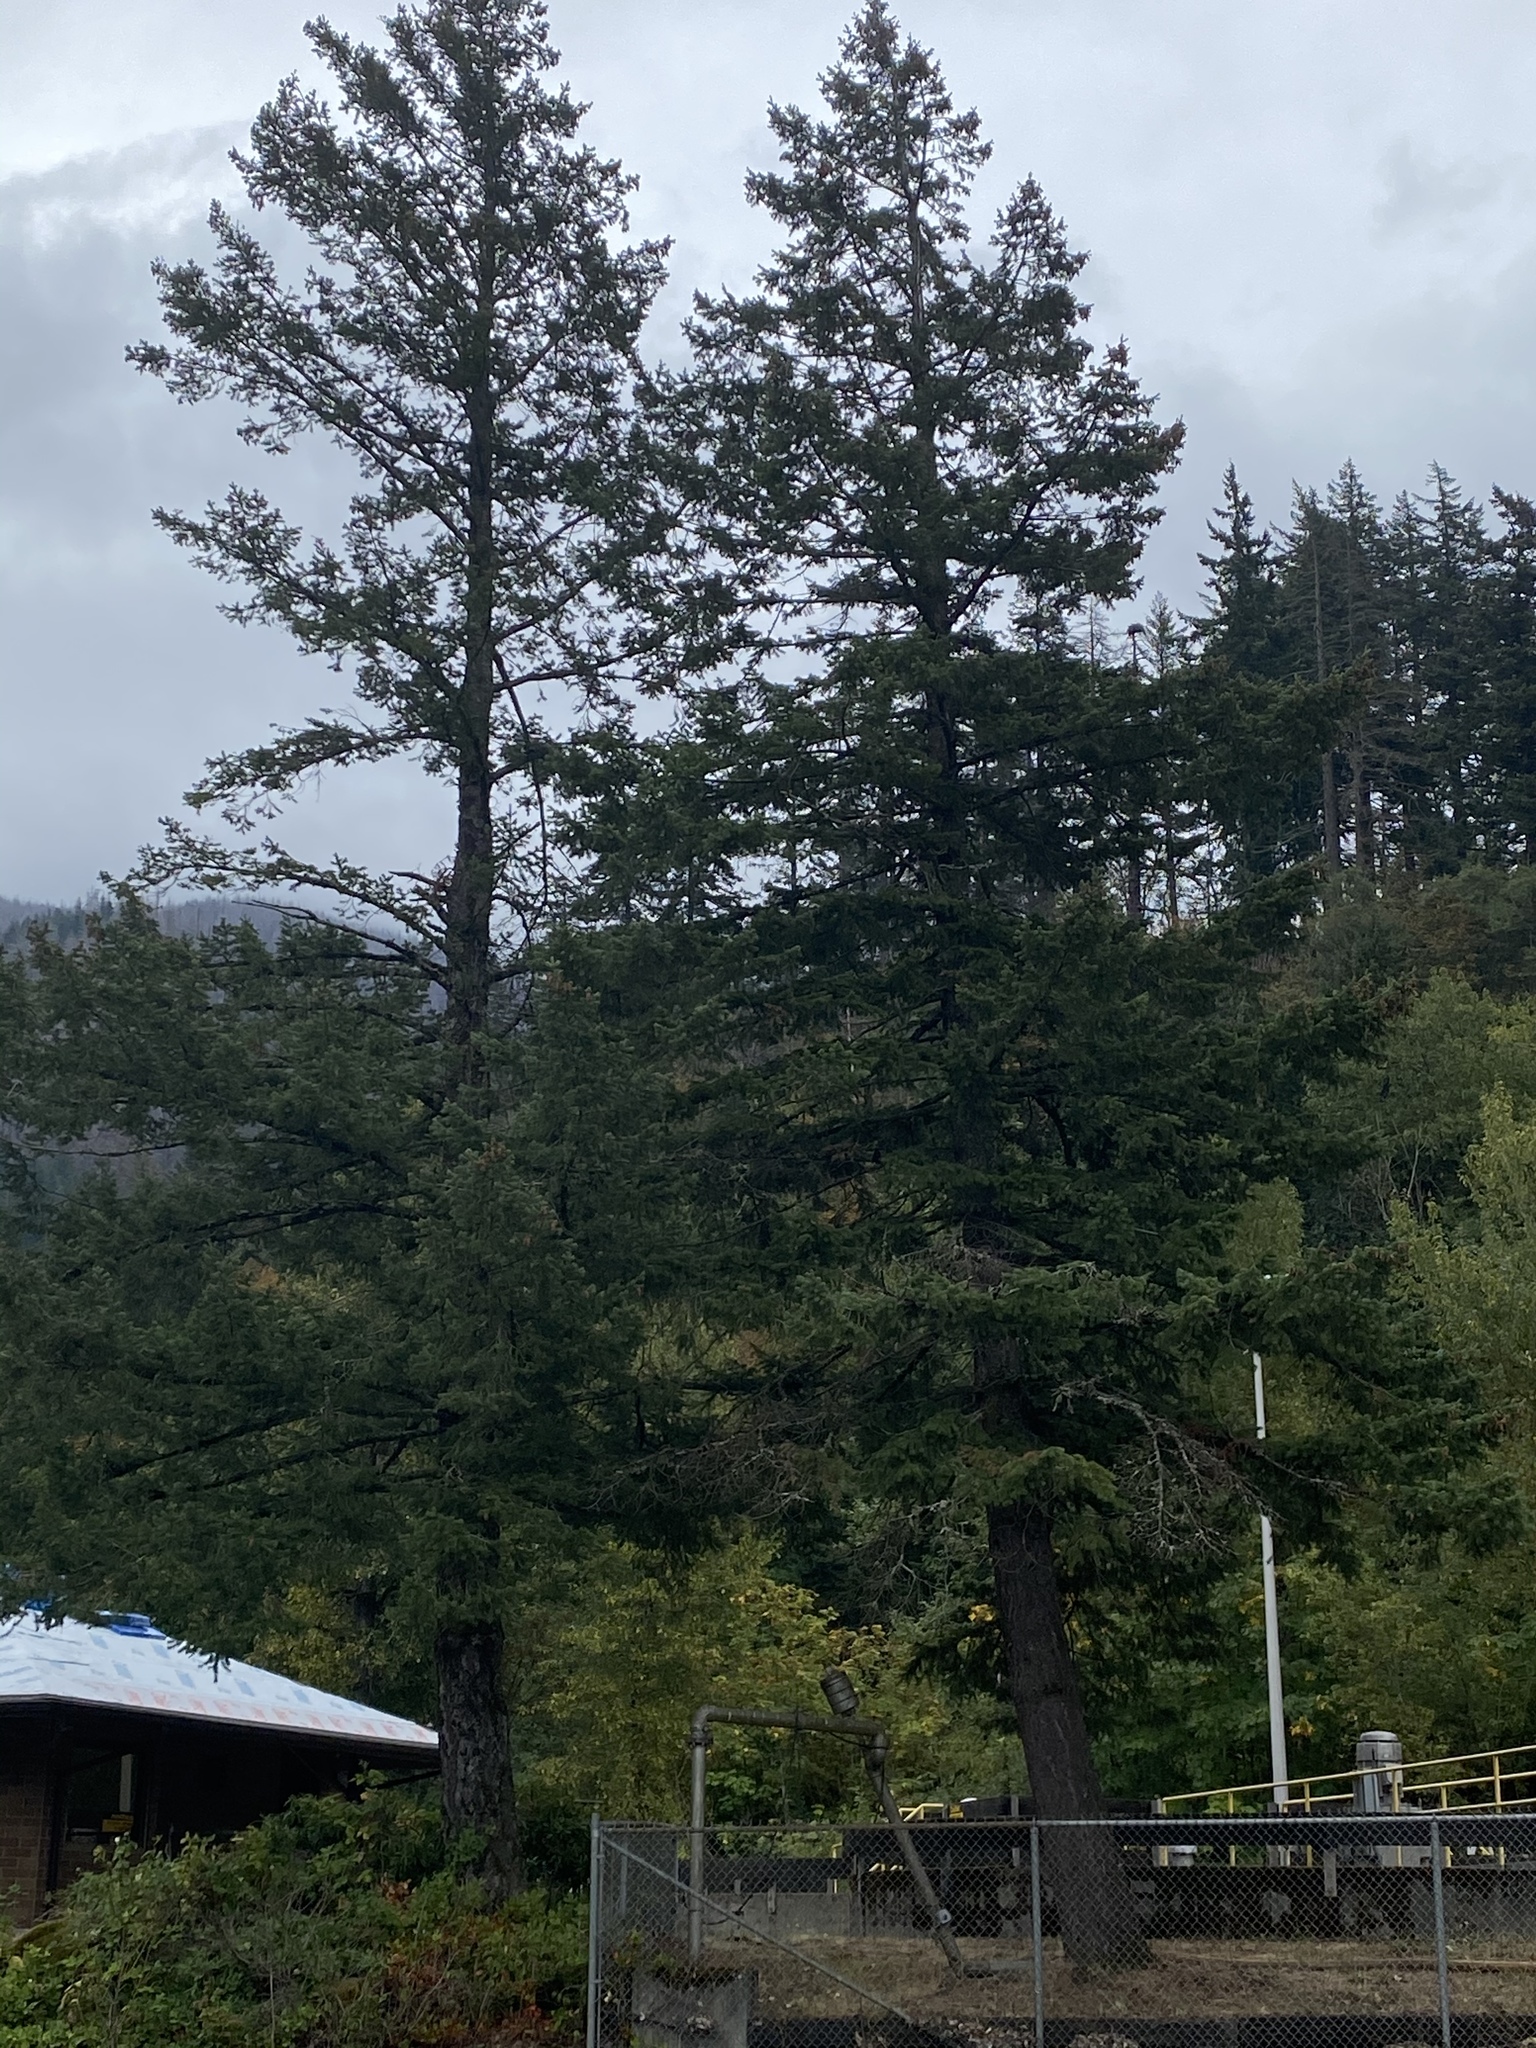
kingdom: Plantae
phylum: Tracheophyta
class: Pinopsida
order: Pinales
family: Pinaceae
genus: Pseudotsuga
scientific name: Pseudotsuga menziesii
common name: Douglas fir
